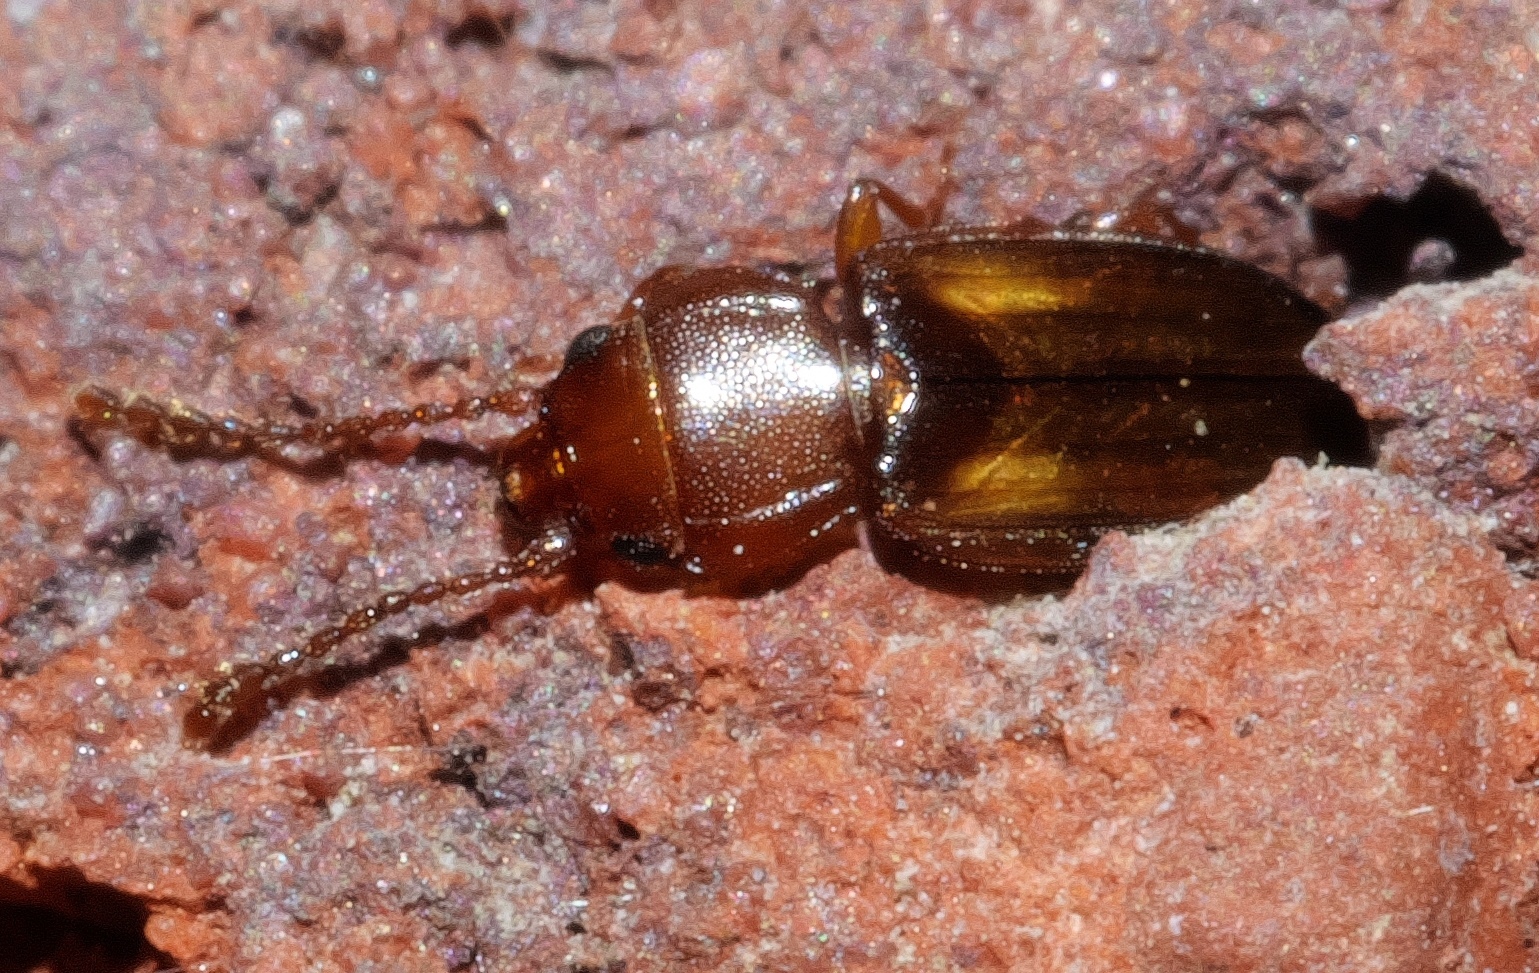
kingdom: Animalia
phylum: Arthropoda
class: Insecta
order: Coleoptera
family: Laemophloeidae
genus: Laemophloeus
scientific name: Laemophloeus fervidus
